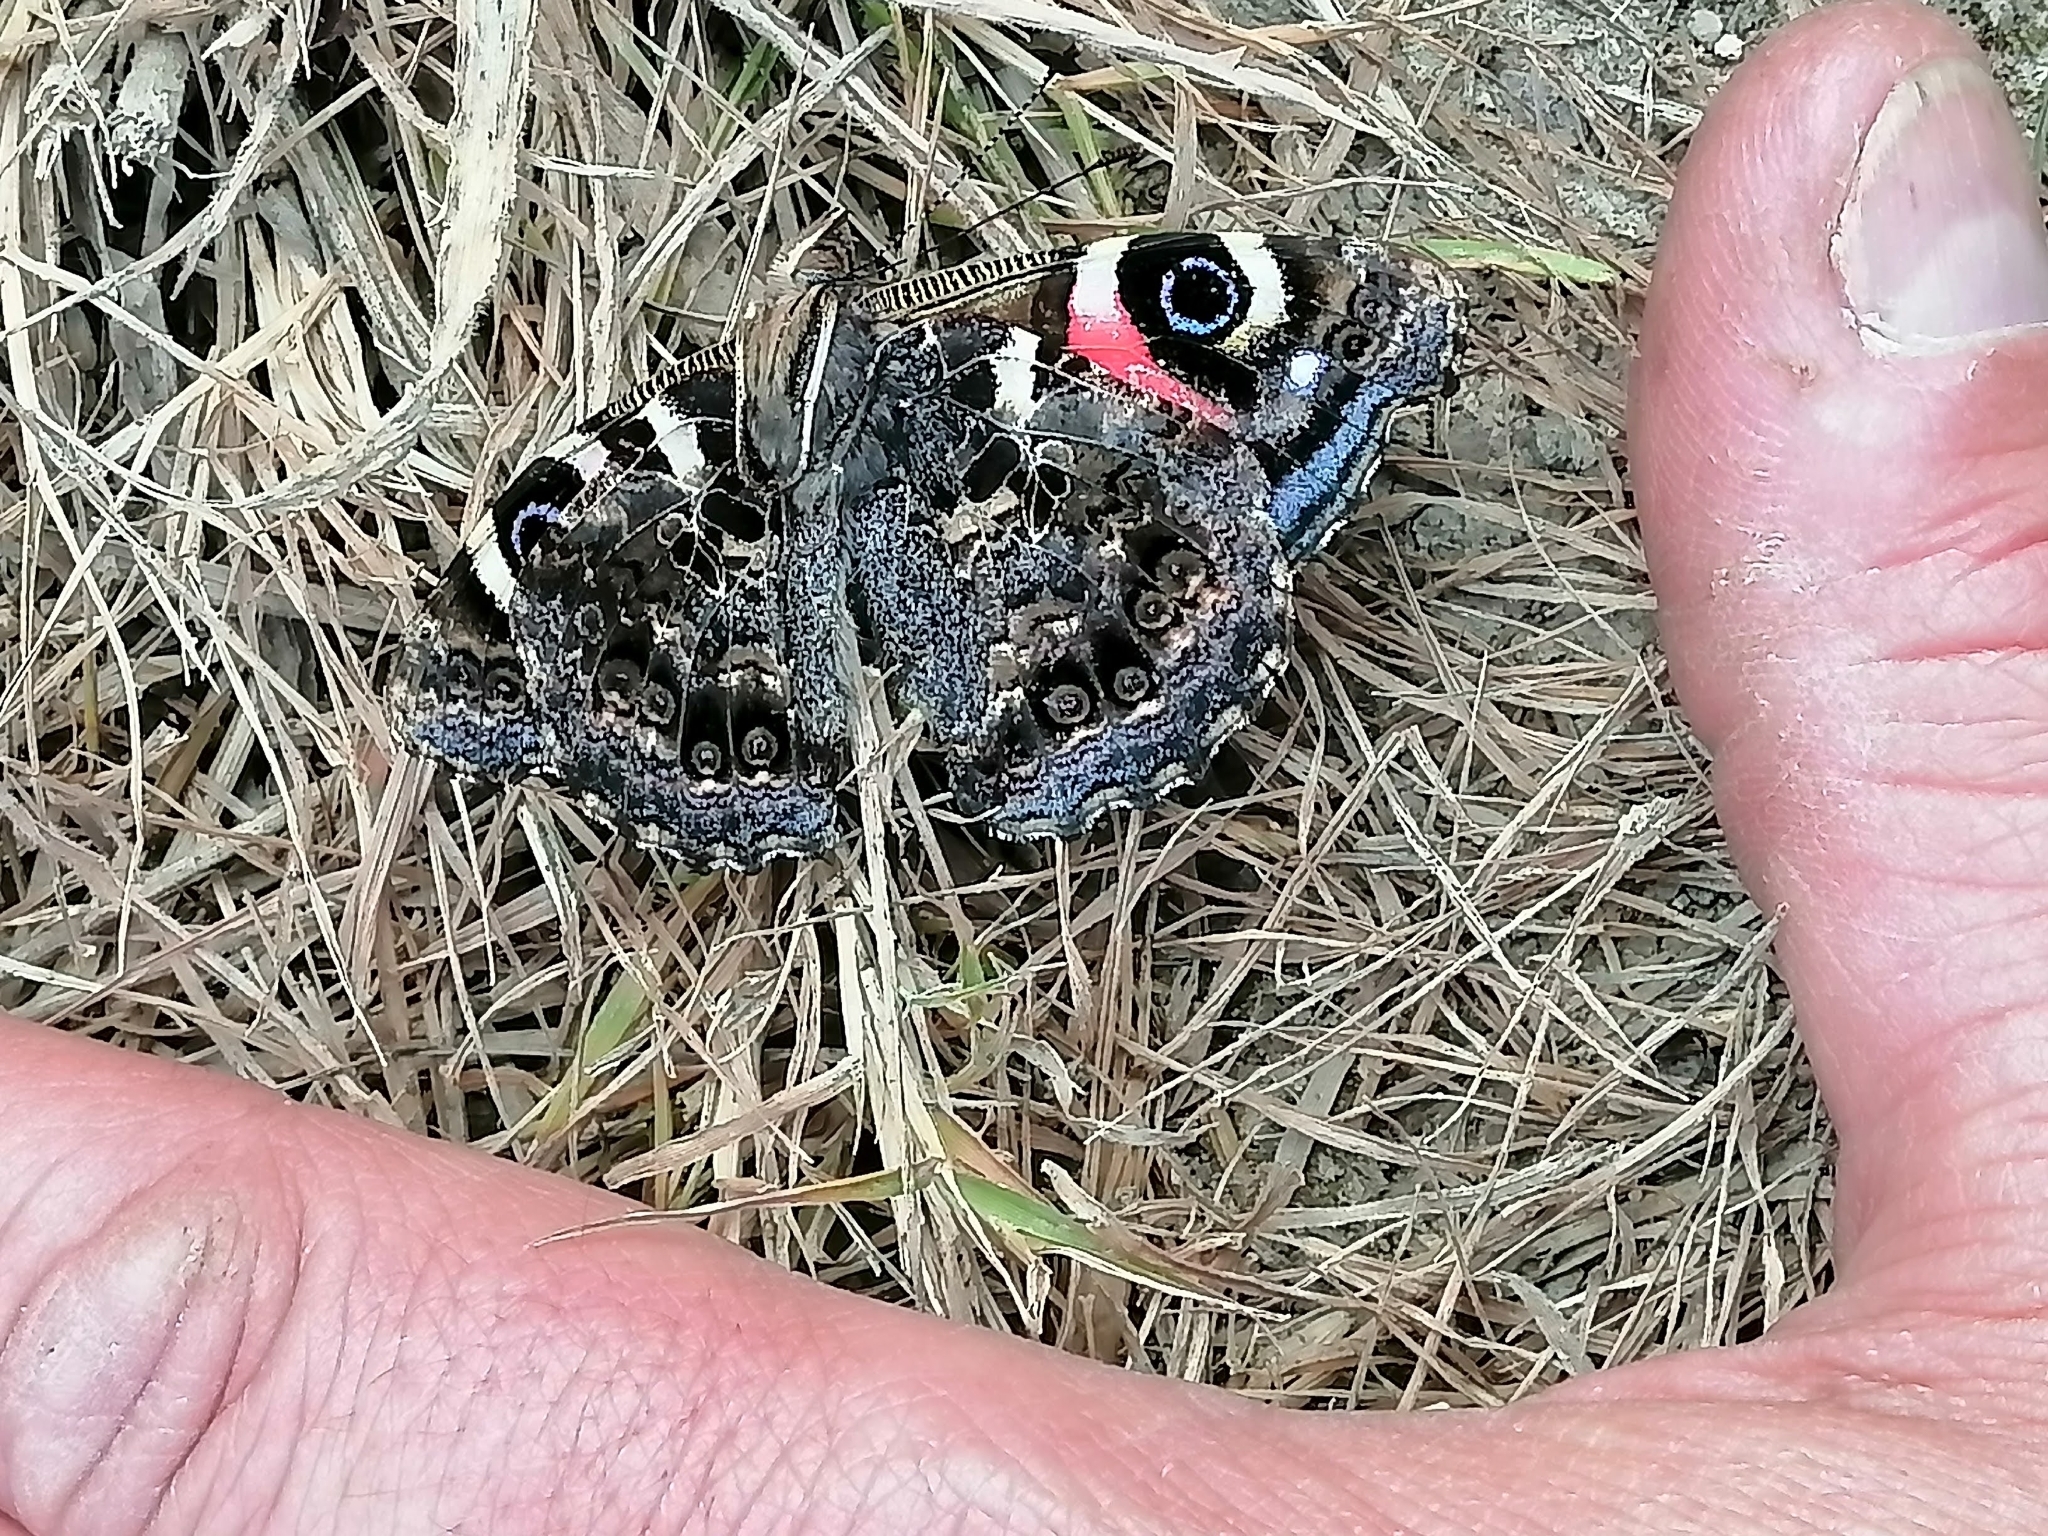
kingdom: Animalia
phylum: Arthropoda
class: Insecta
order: Lepidoptera
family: Nymphalidae
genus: Vanessa
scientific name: Vanessa gonerilla
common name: New zealand red admiral
